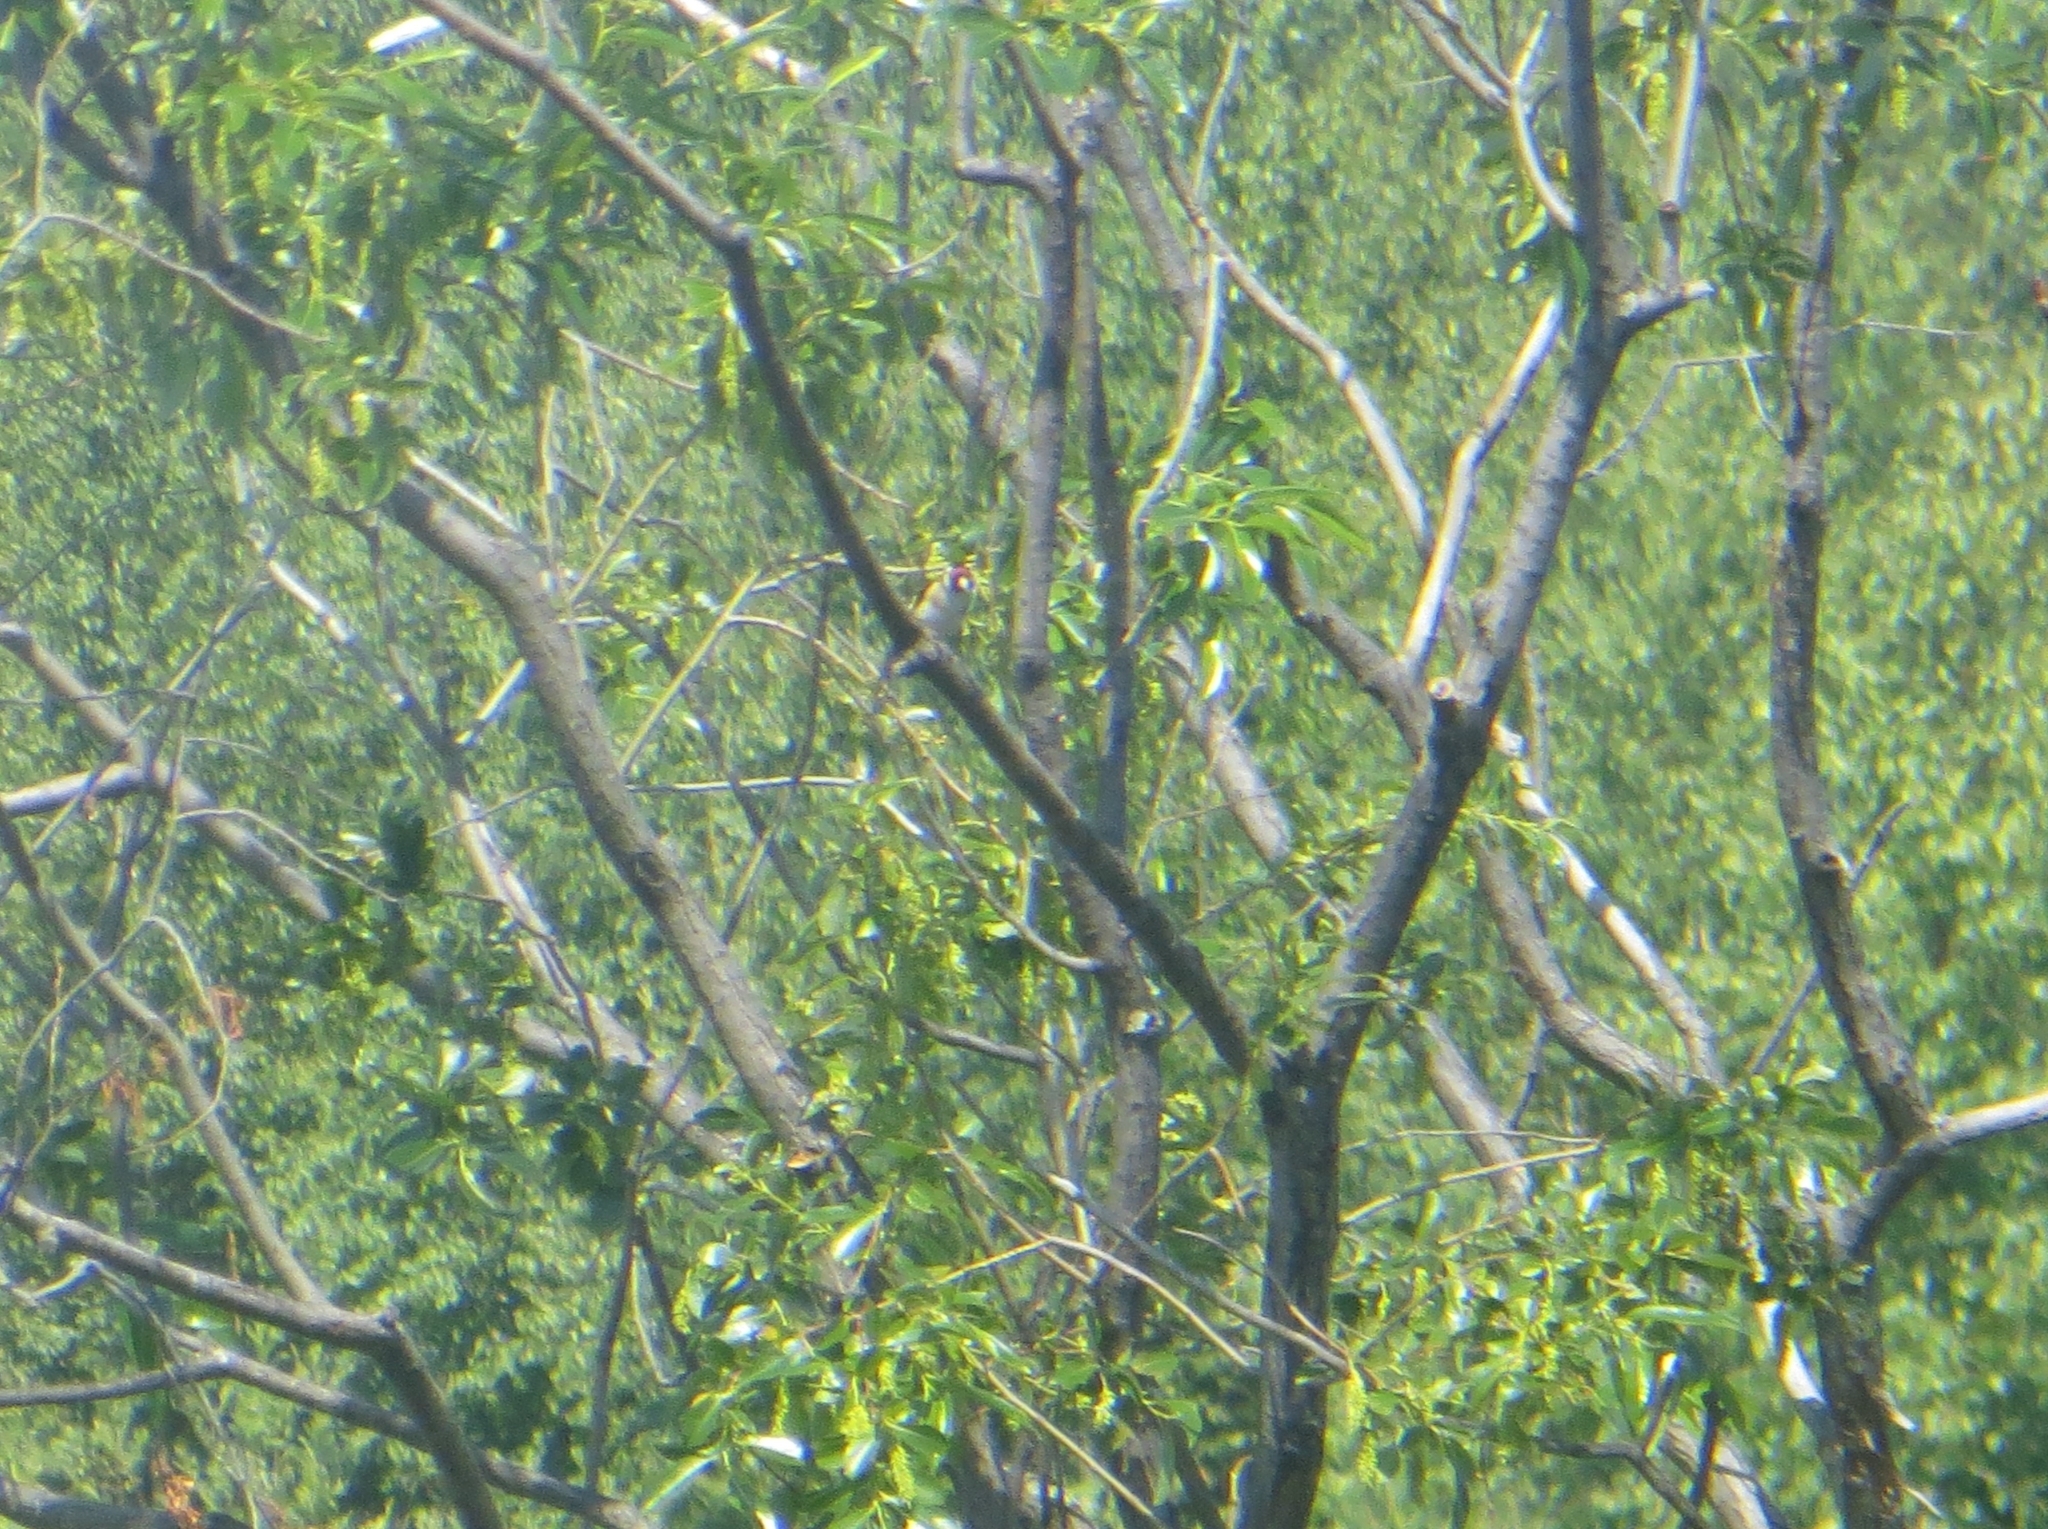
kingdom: Animalia
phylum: Chordata
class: Aves
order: Passeriformes
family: Fringillidae
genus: Carduelis
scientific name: Carduelis carduelis
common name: European goldfinch
